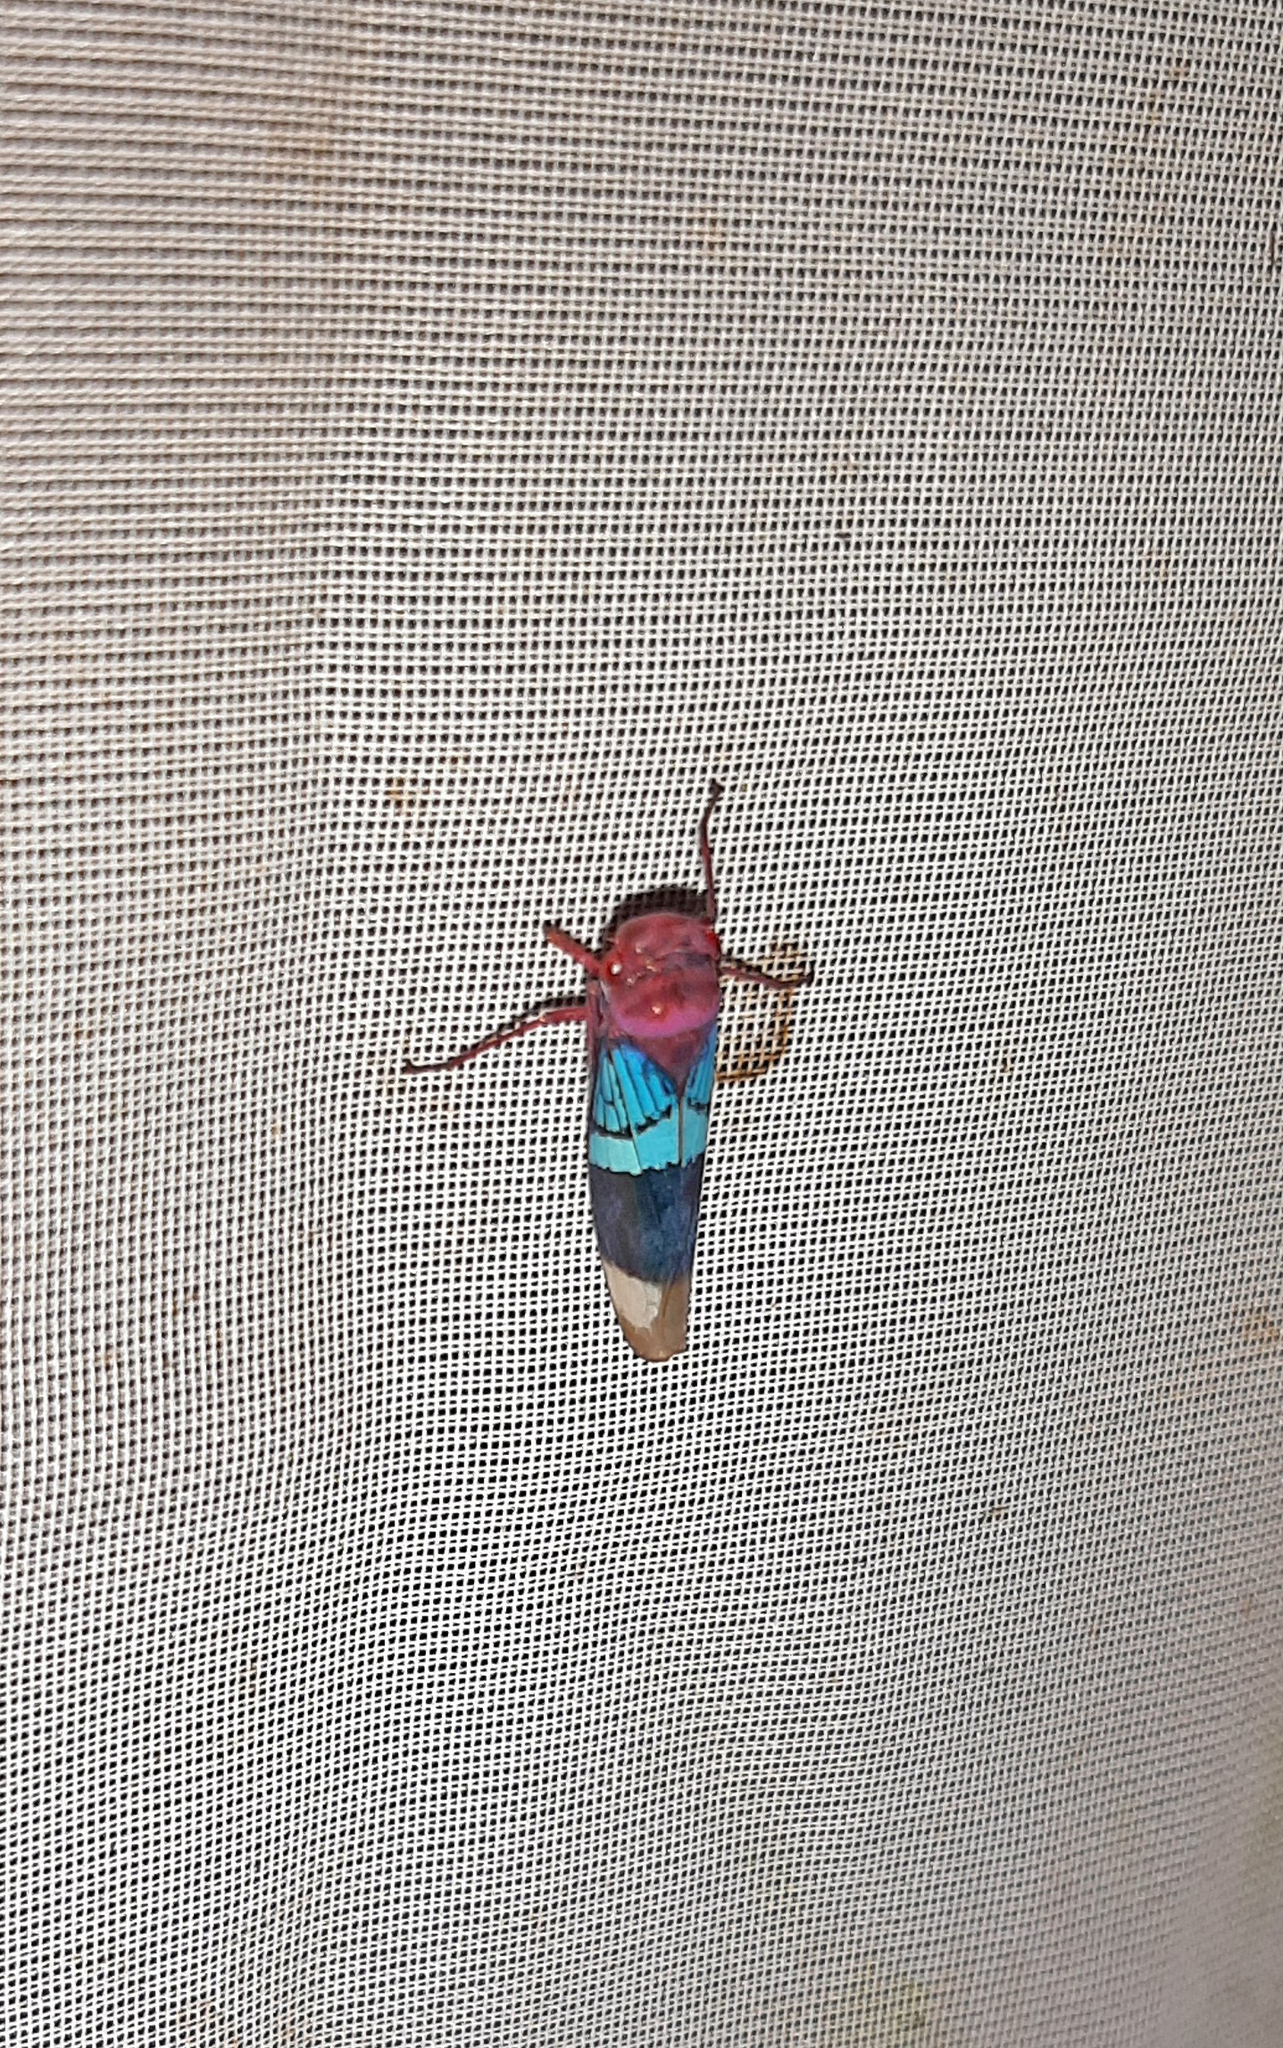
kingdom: Animalia
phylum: Arthropoda
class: Insecta
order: Hemiptera
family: Cicadellidae
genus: Amblyscarta
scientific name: Amblyscarta opulenta
